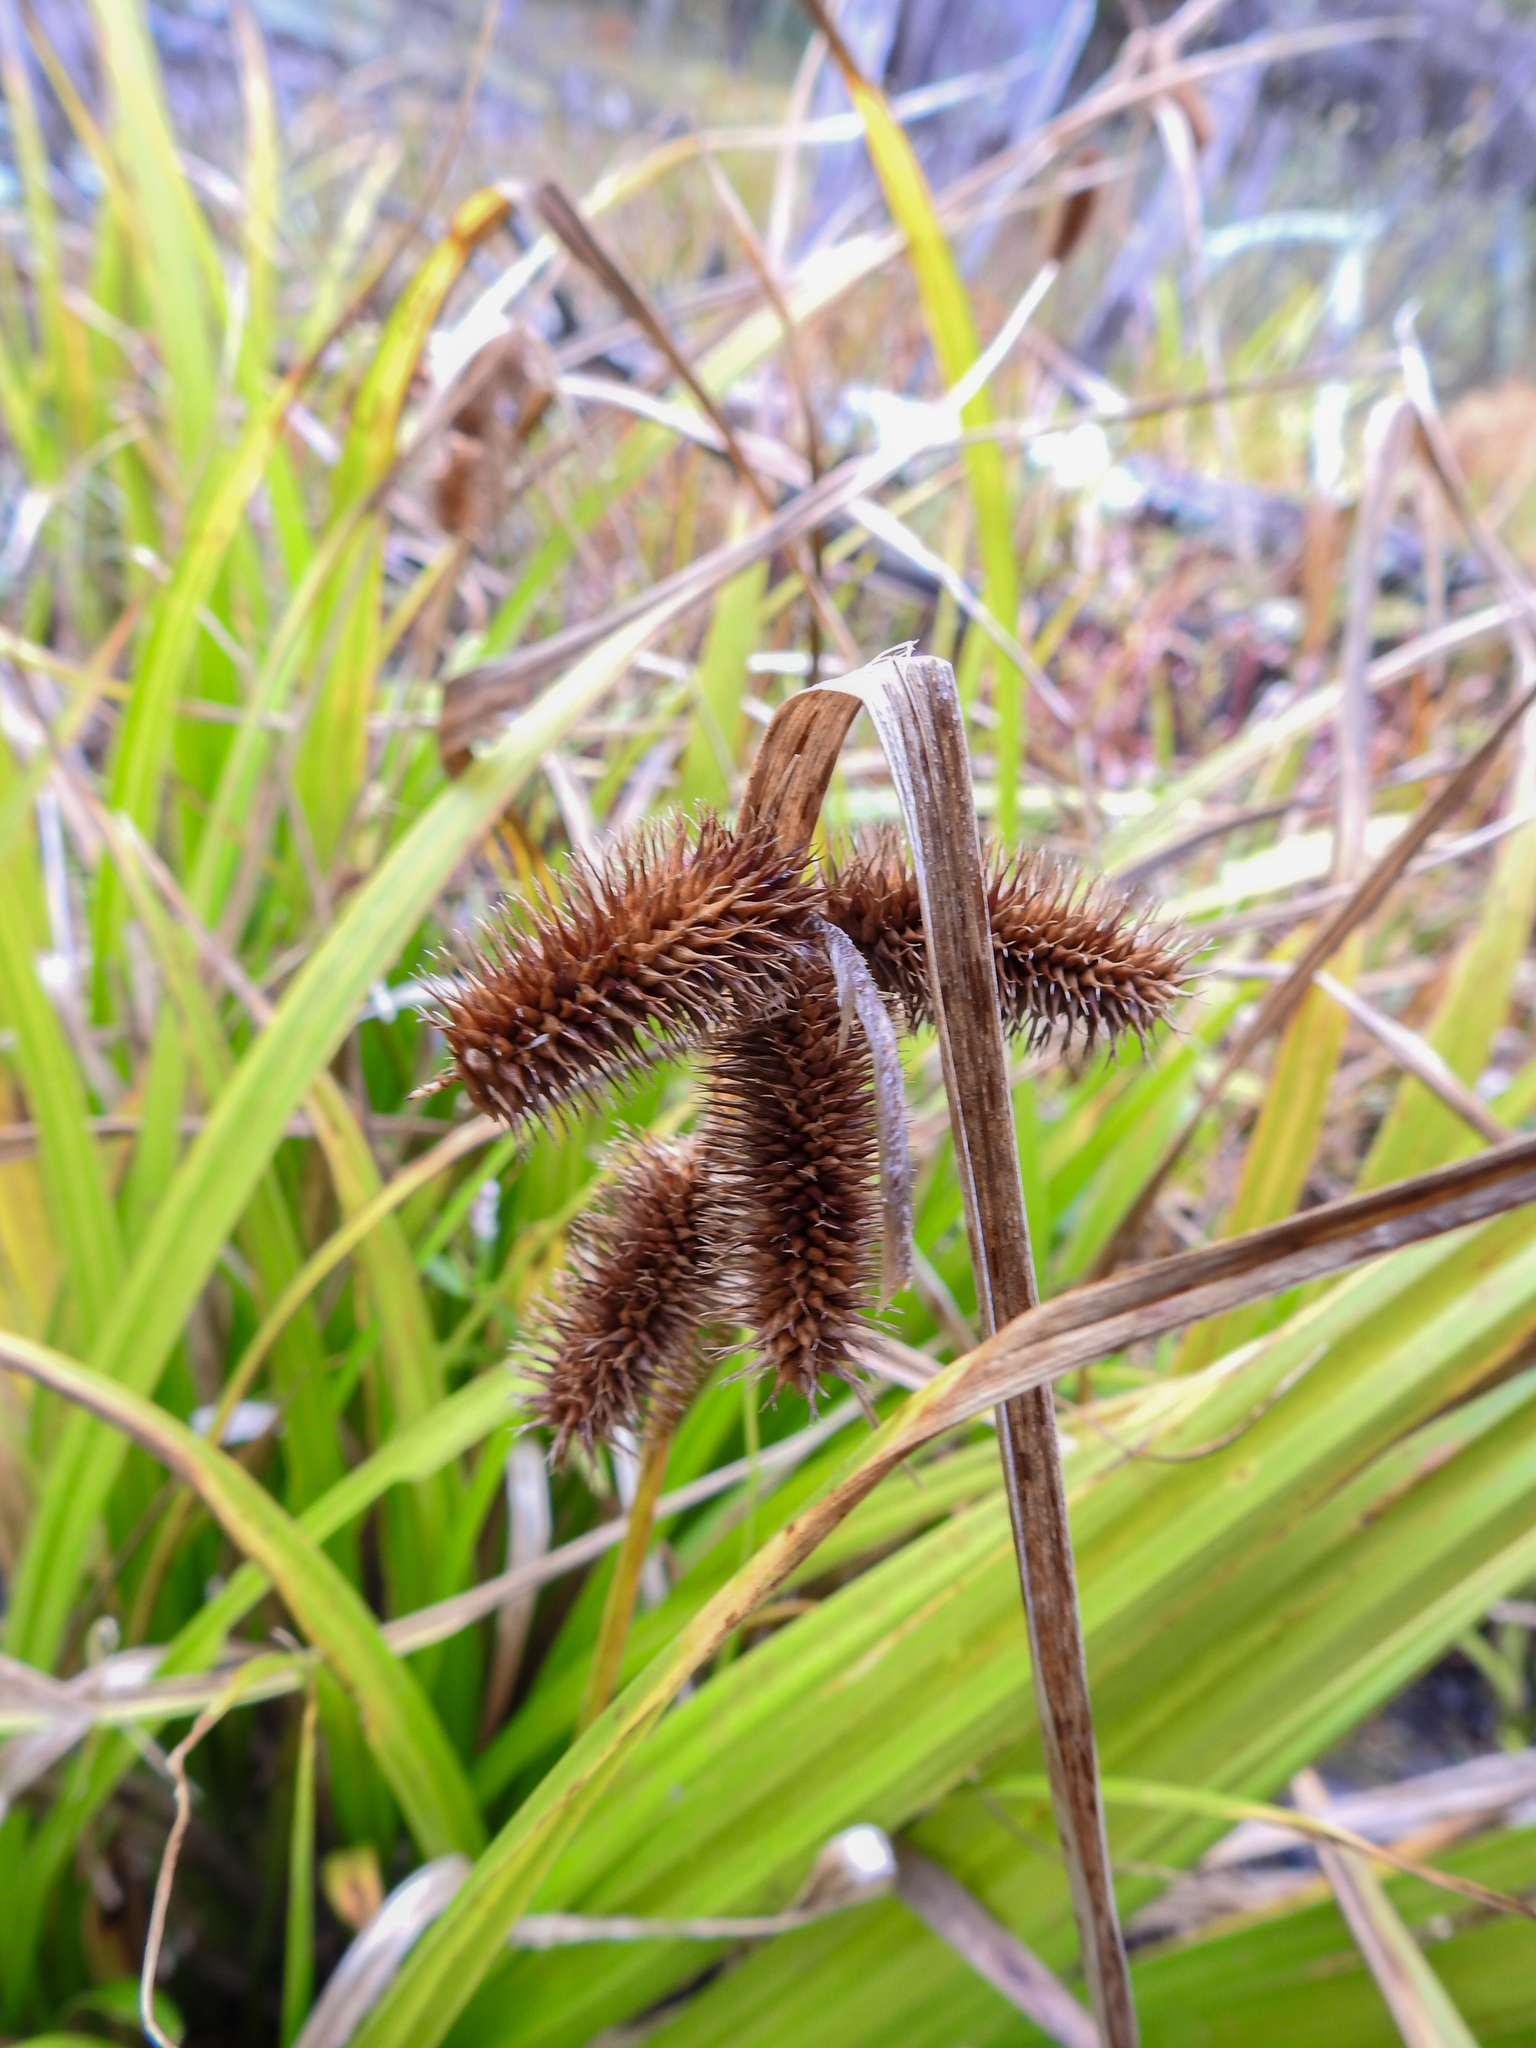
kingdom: Plantae
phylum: Tracheophyta
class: Liliopsida
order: Poales
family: Cyperaceae
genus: Carex
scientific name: Carex comosa
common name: Bristly sedge
